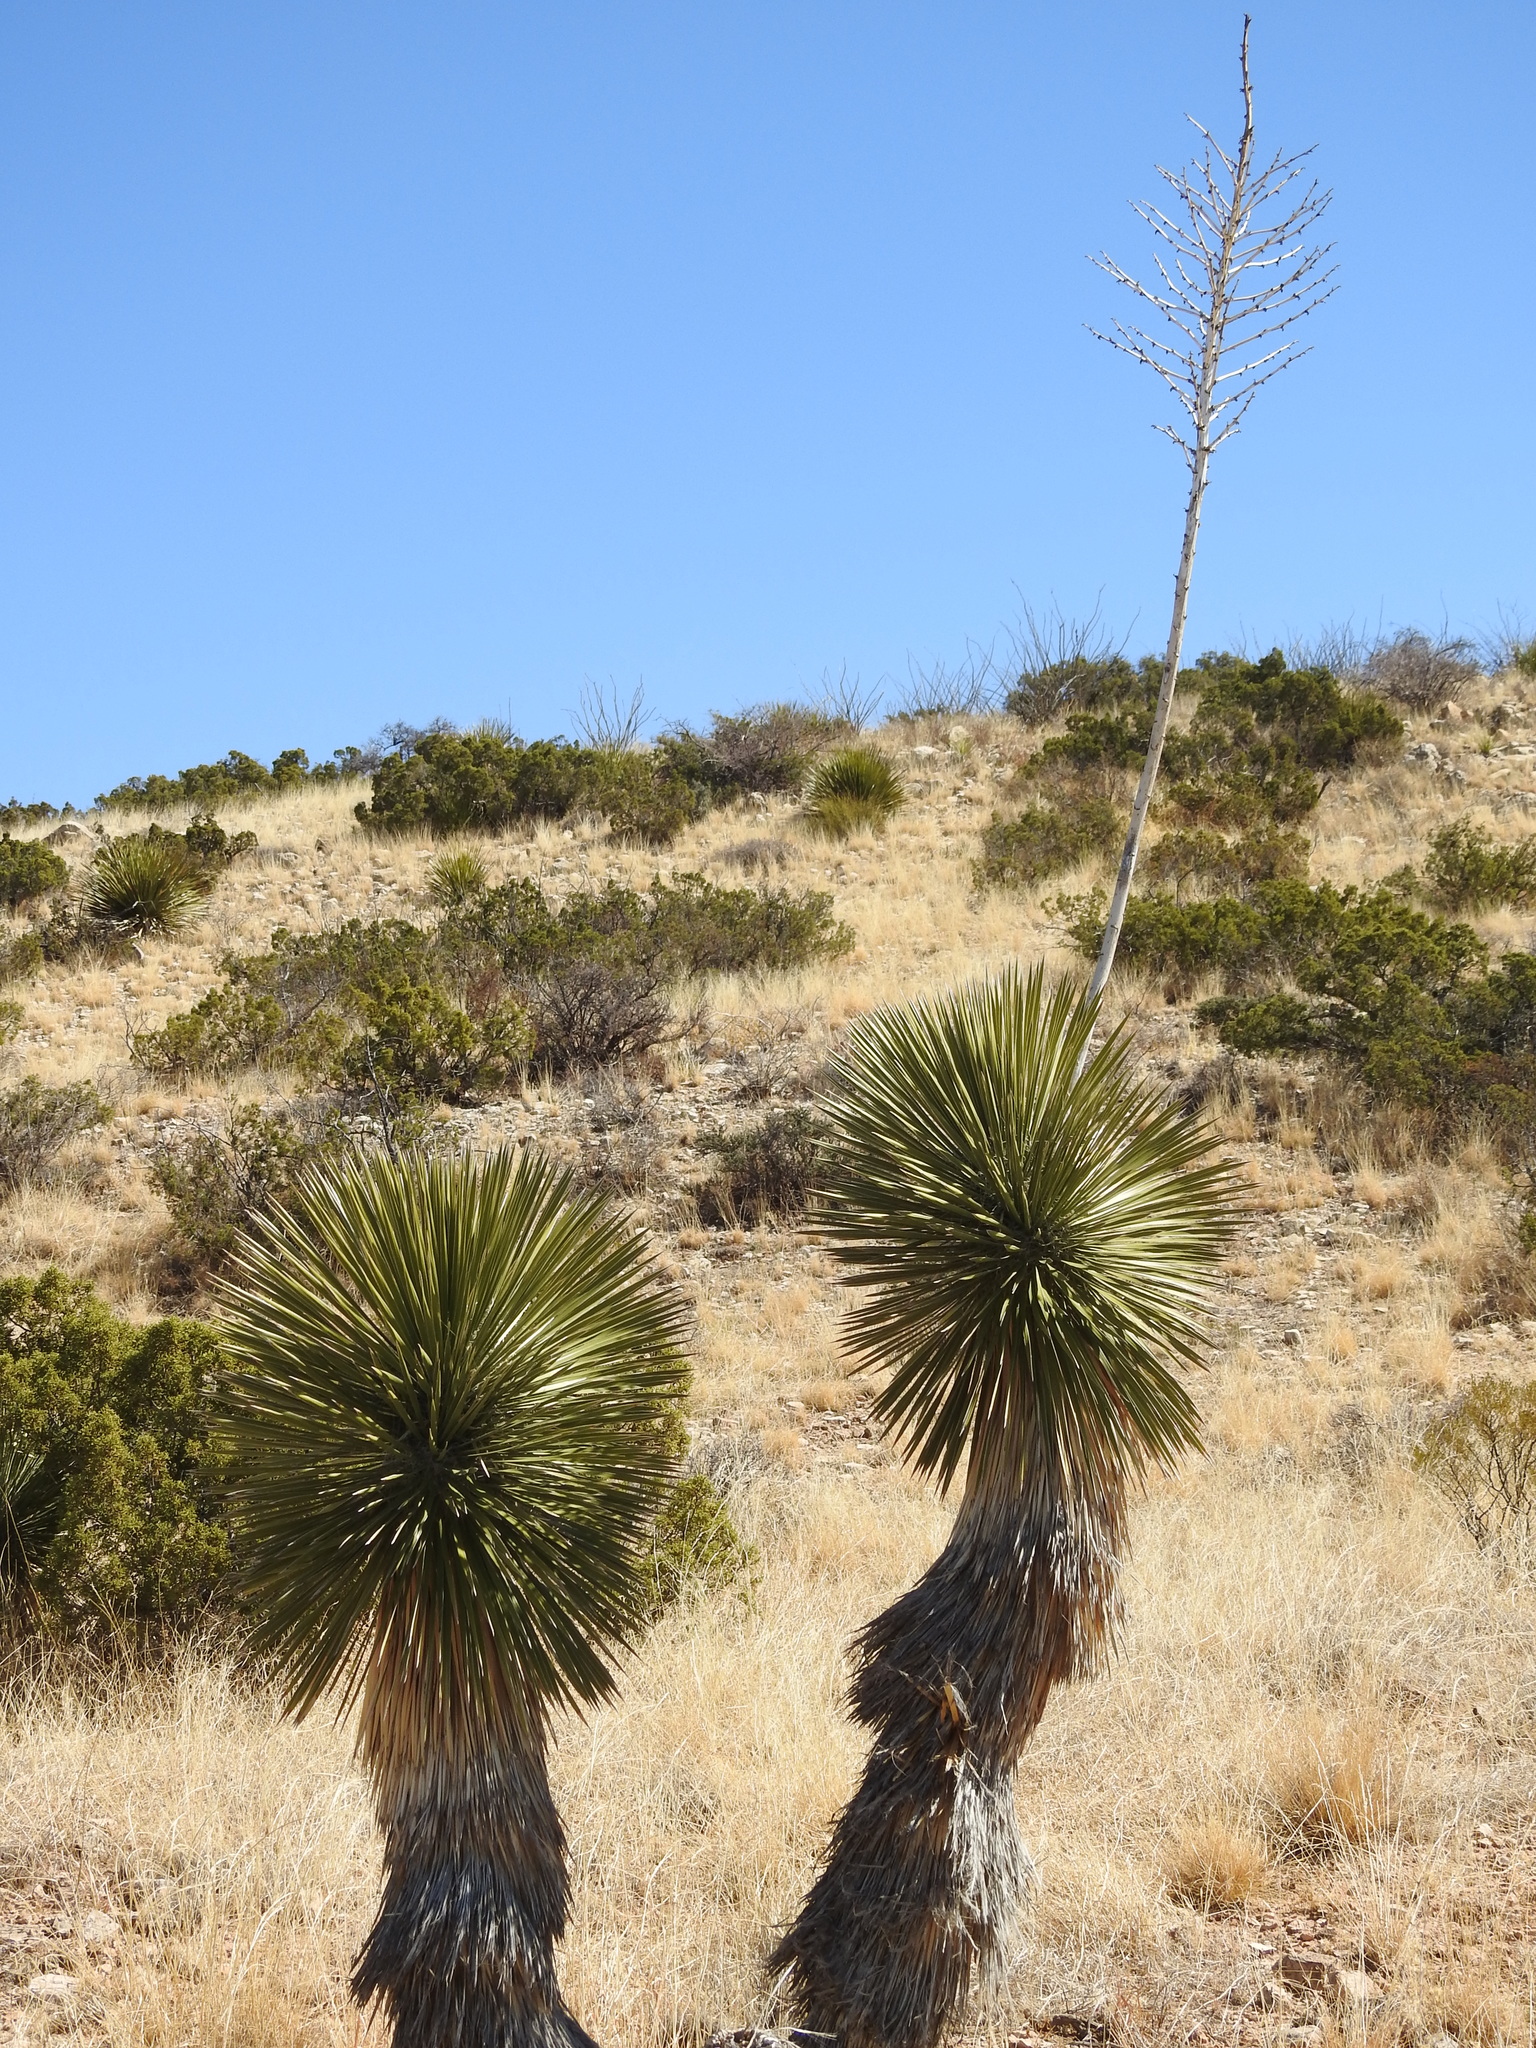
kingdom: Plantae
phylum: Tracheophyta
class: Liliopsida
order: Asparagales
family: Asparagaceae
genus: Yucca
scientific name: Yucca elata
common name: Palmella
